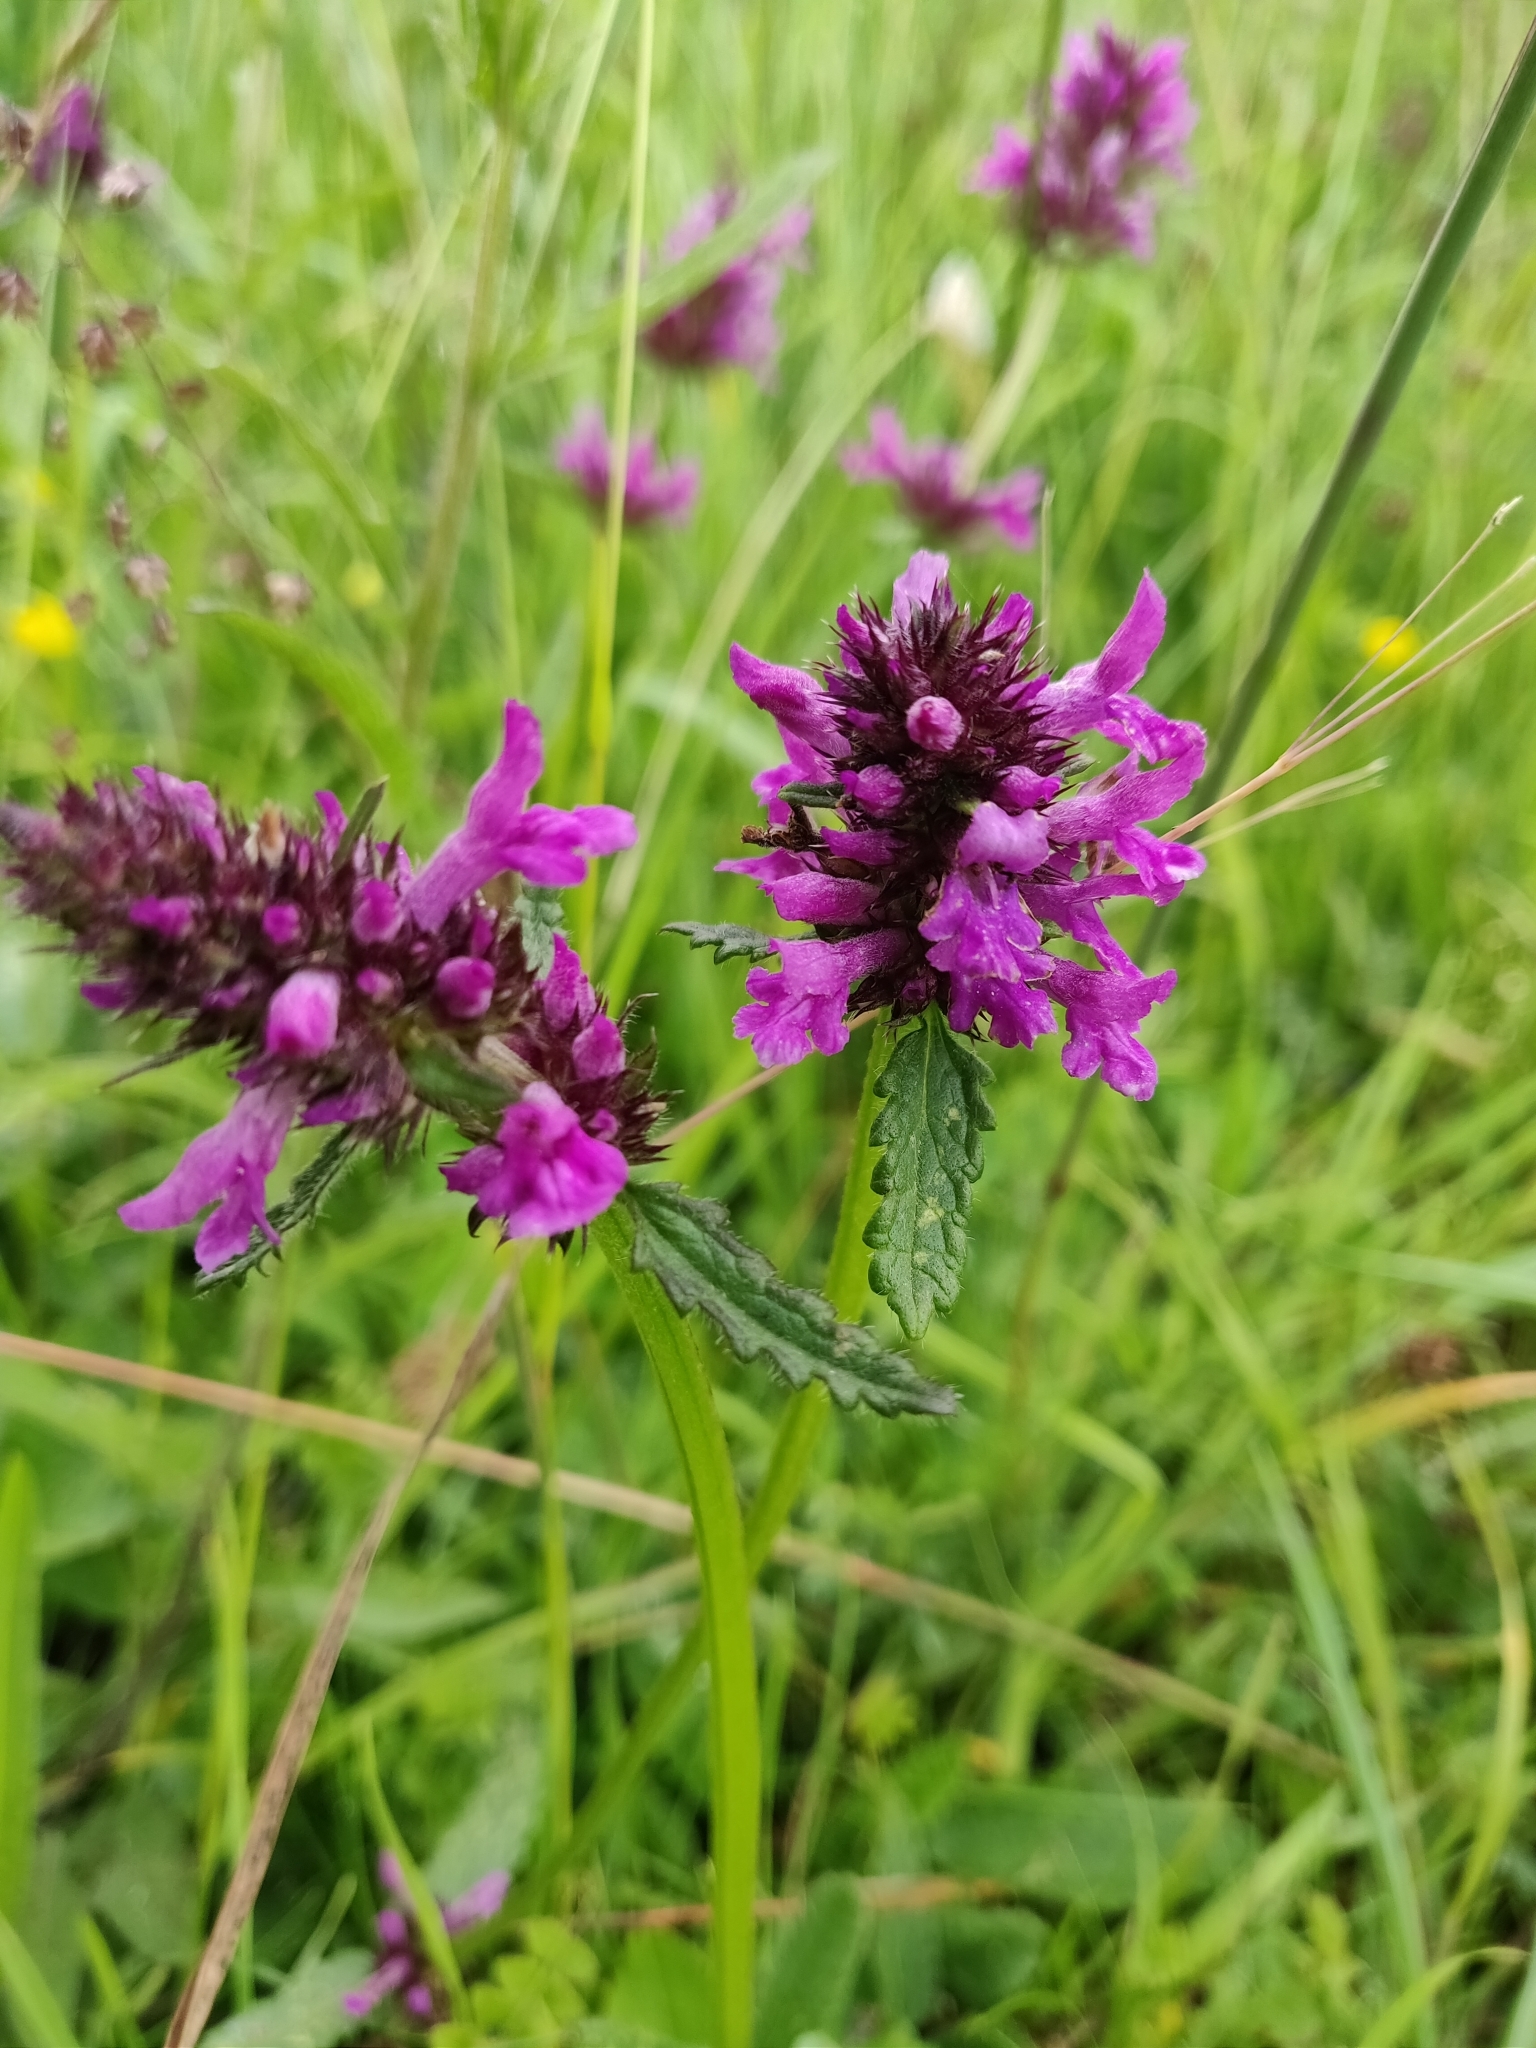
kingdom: Plantae
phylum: Tracheophyta
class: Magnoliopsida
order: Lamiales
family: Lamiaceae
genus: Betonica
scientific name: Betonica officinalis
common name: Bishop's-wort
